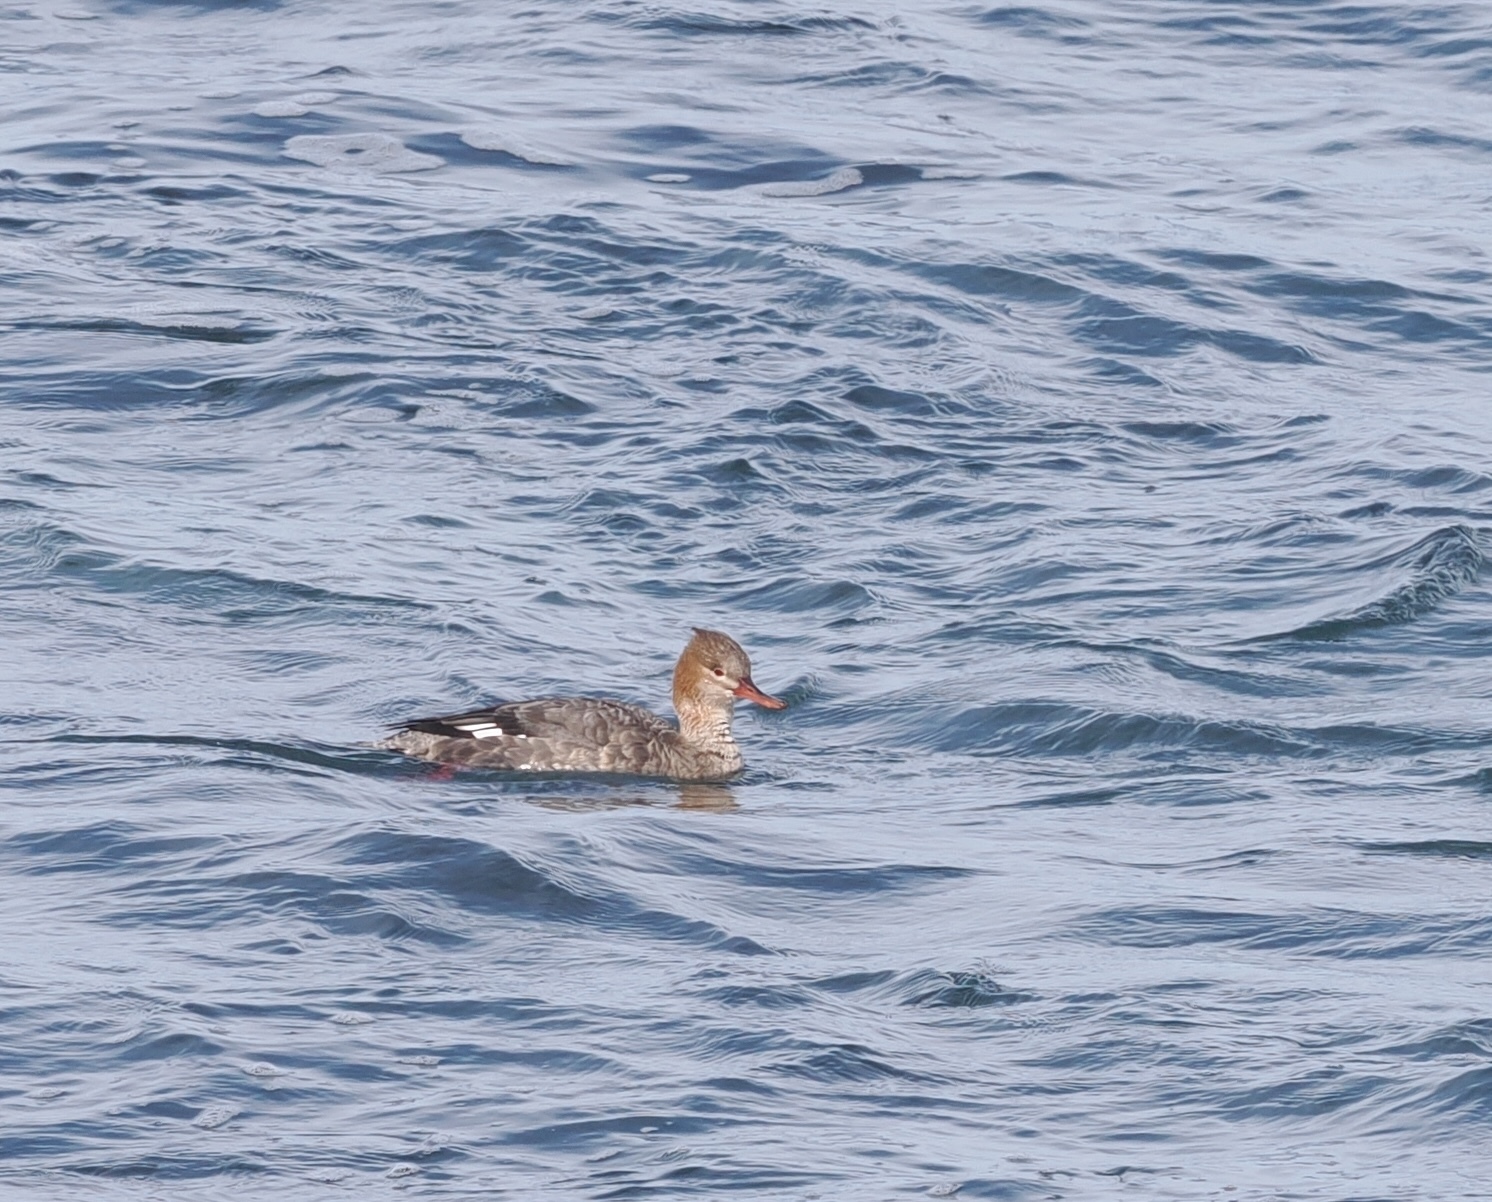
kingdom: Animalia
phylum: Chordata
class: Aves
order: Anseriformes
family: Anatidae
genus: Mergus
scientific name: Mergus serrator
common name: Red-breasted merganser
